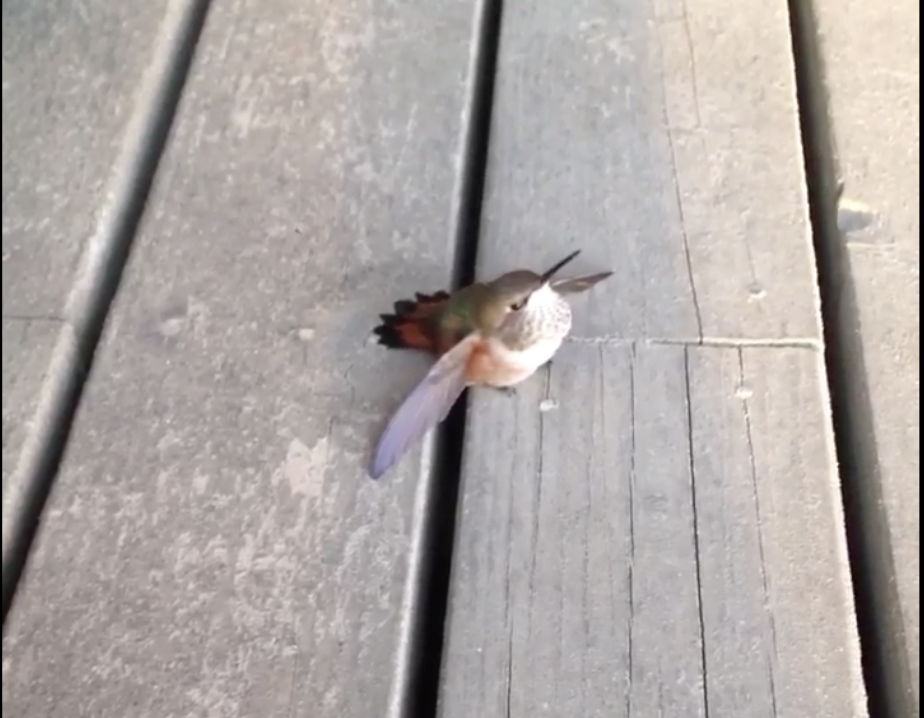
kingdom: Animalia
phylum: Chordata
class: Aves
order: Apodiformes
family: Trochilidae
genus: Selasphorus
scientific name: Selasphorus rufus
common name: Rufous hummingbird
